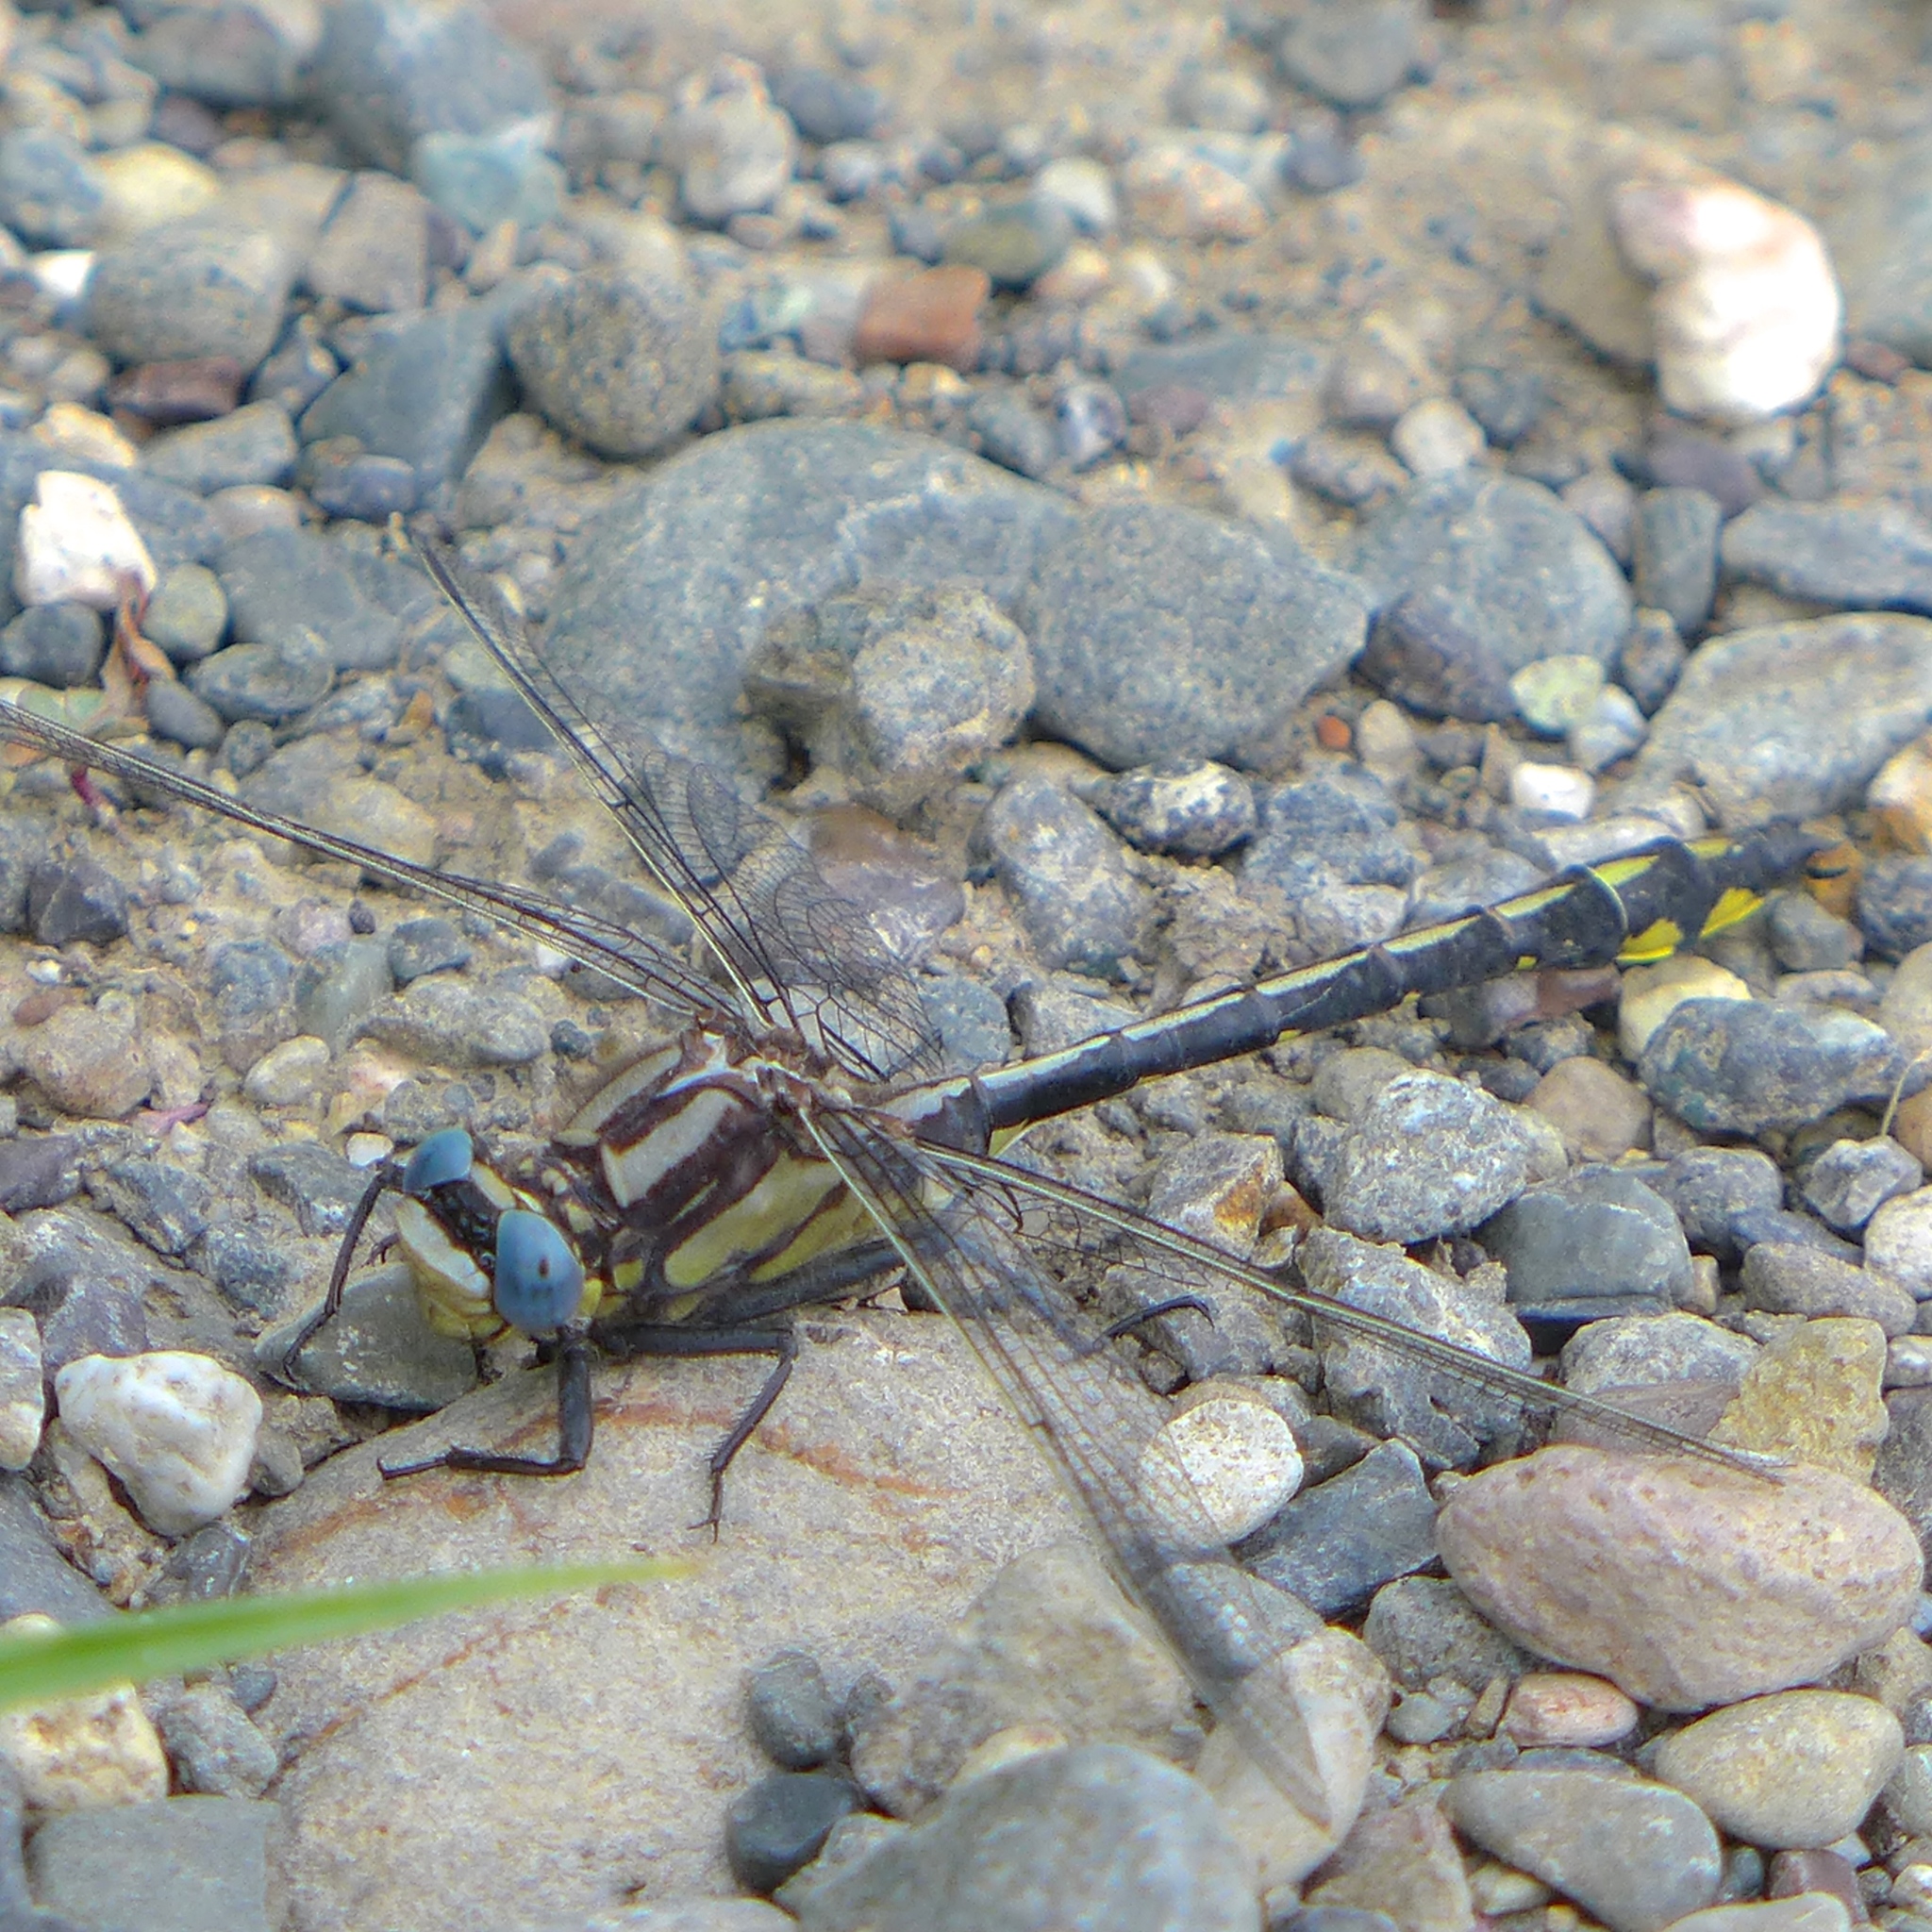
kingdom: Animalia
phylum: Arthropoda
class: Insecta
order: Odonata
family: Gomphidae
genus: Phanogomphus
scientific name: Phanogomphus kurilis
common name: Pacific clubtail
